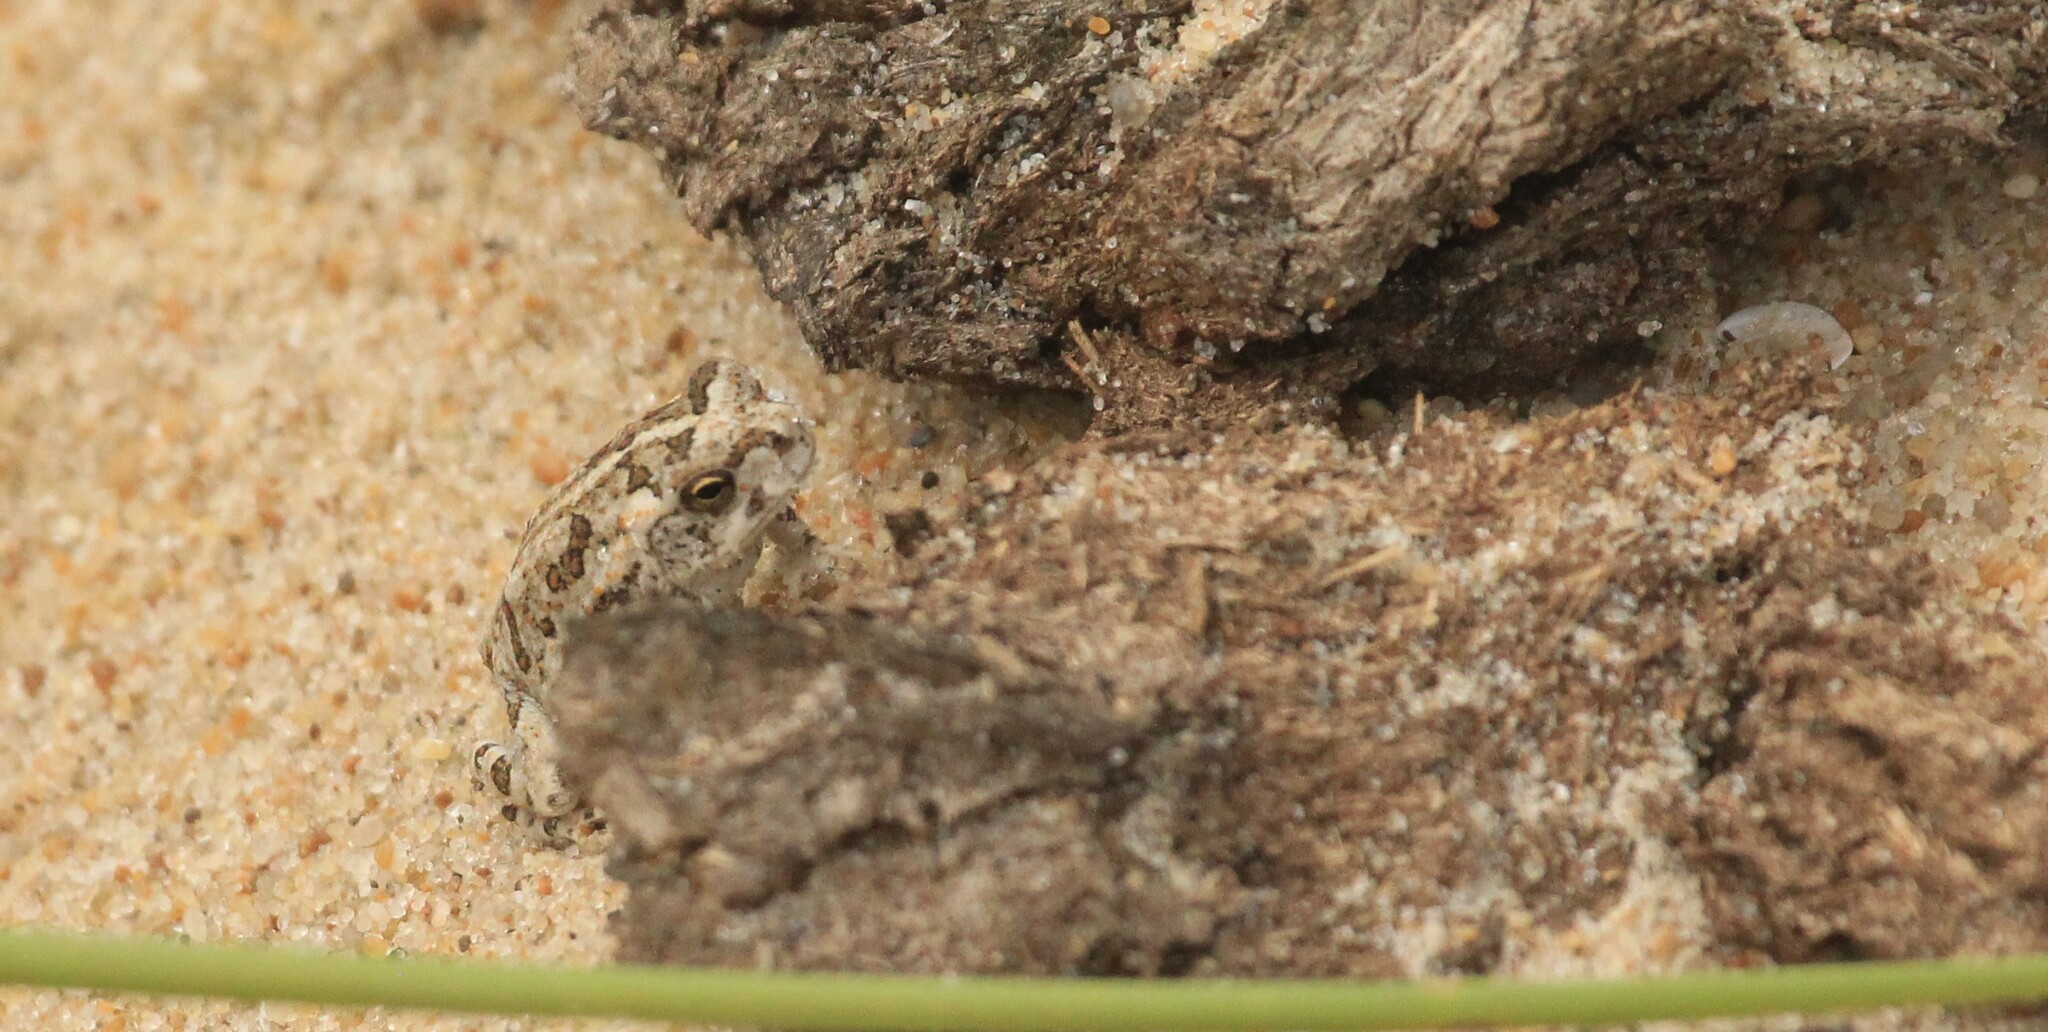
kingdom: Animalia
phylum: Chordata
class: Amphibia
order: Anura
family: Bufonidae
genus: Rhinella
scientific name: Rhinella arenarum
